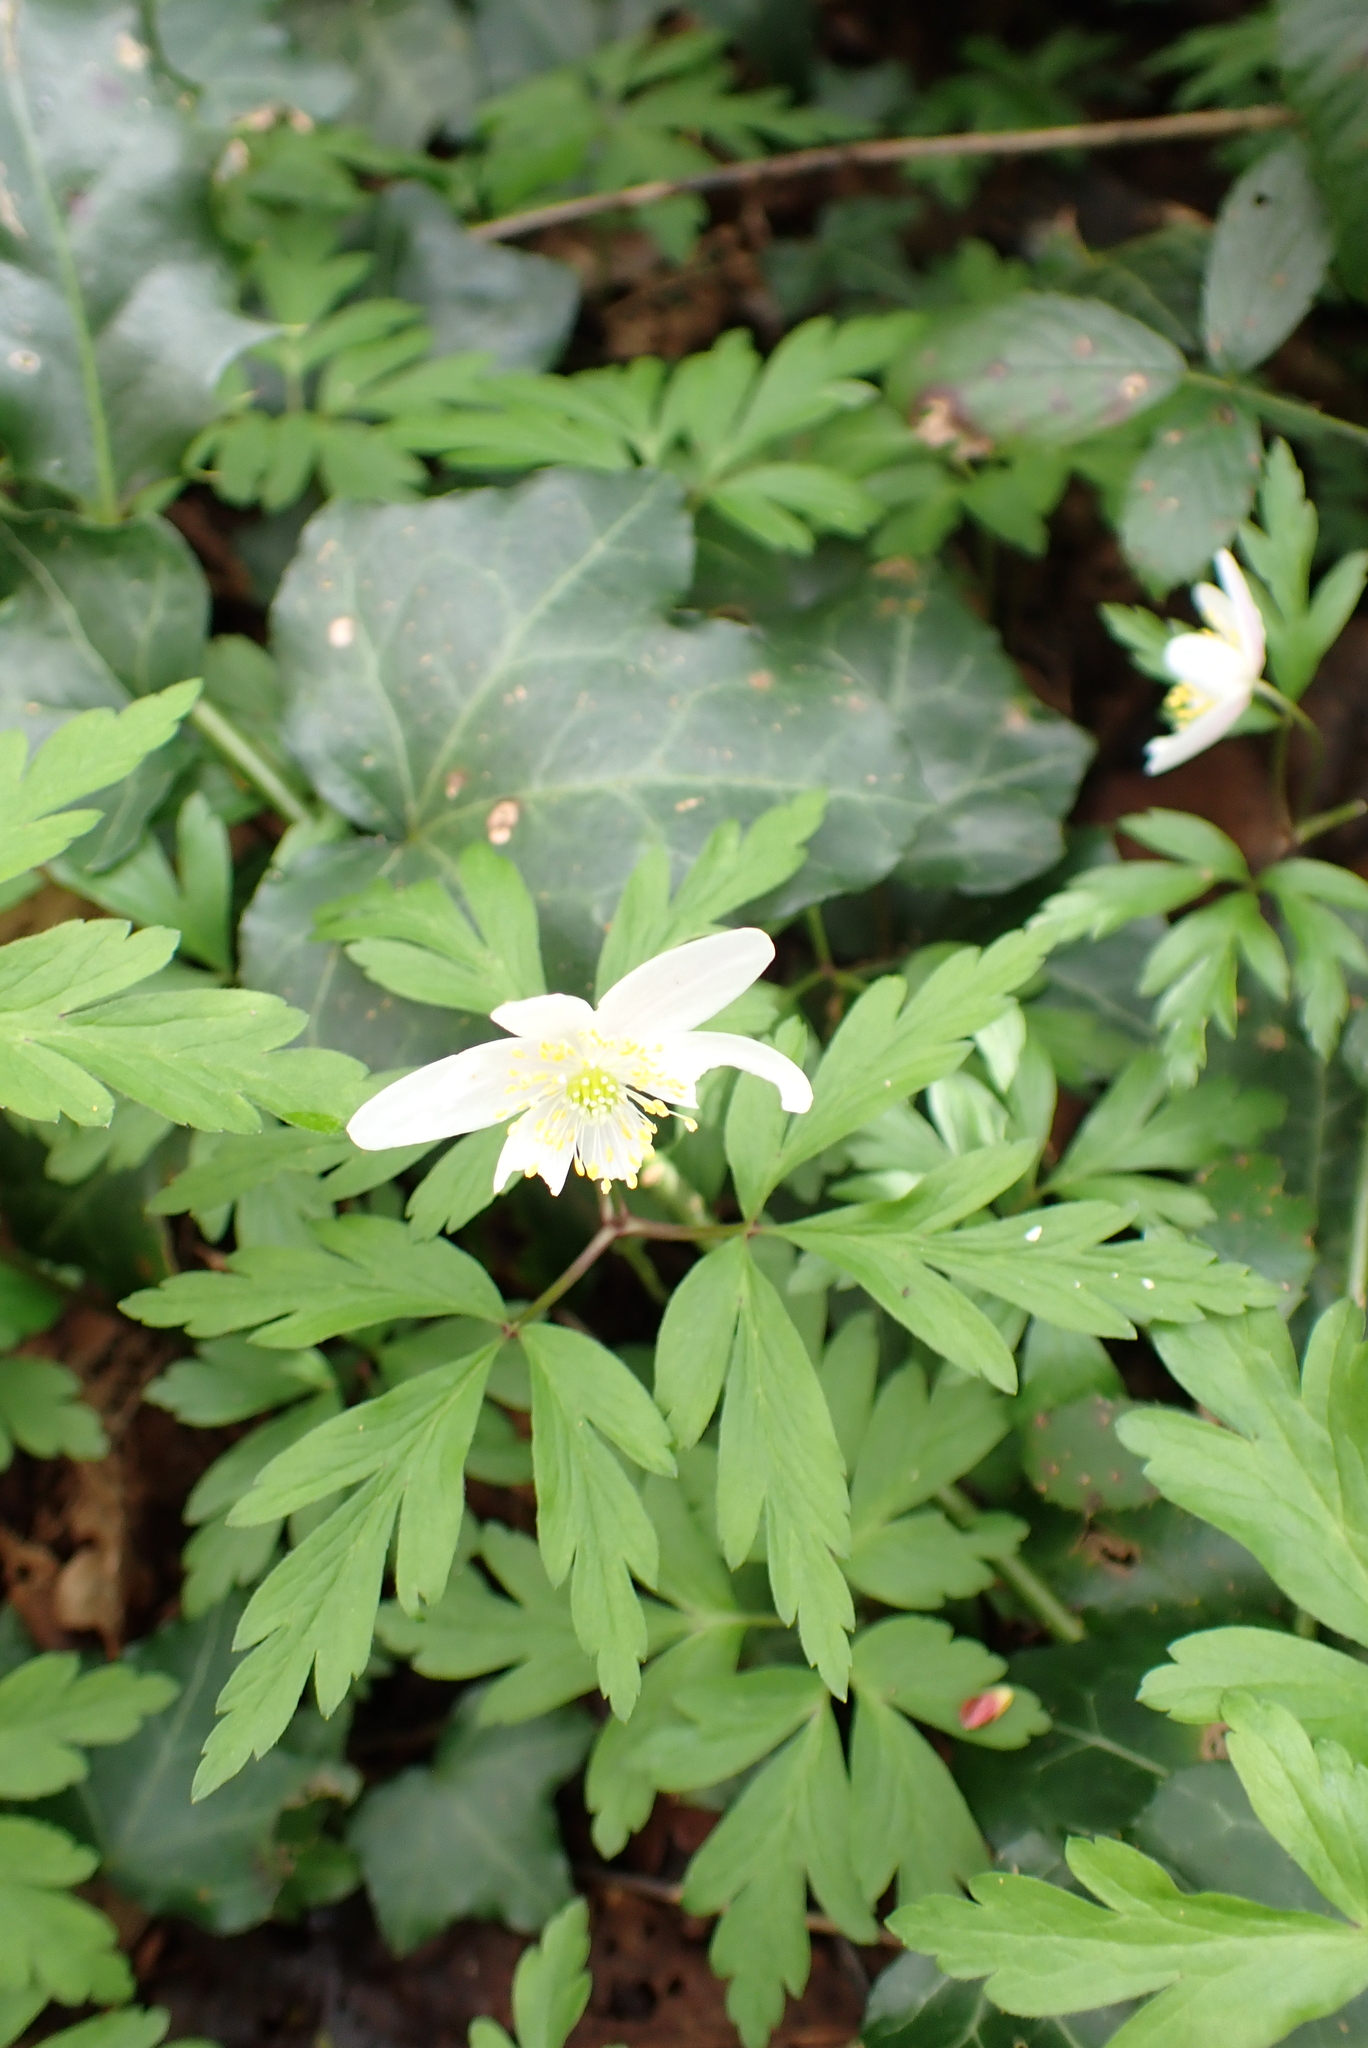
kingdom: Plantae
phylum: Tracheophyta
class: Magnoliopsida
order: Ranunculales
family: Ranunculaceae
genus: Anemone
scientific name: Anemone nemorosa
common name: Wood anemone
